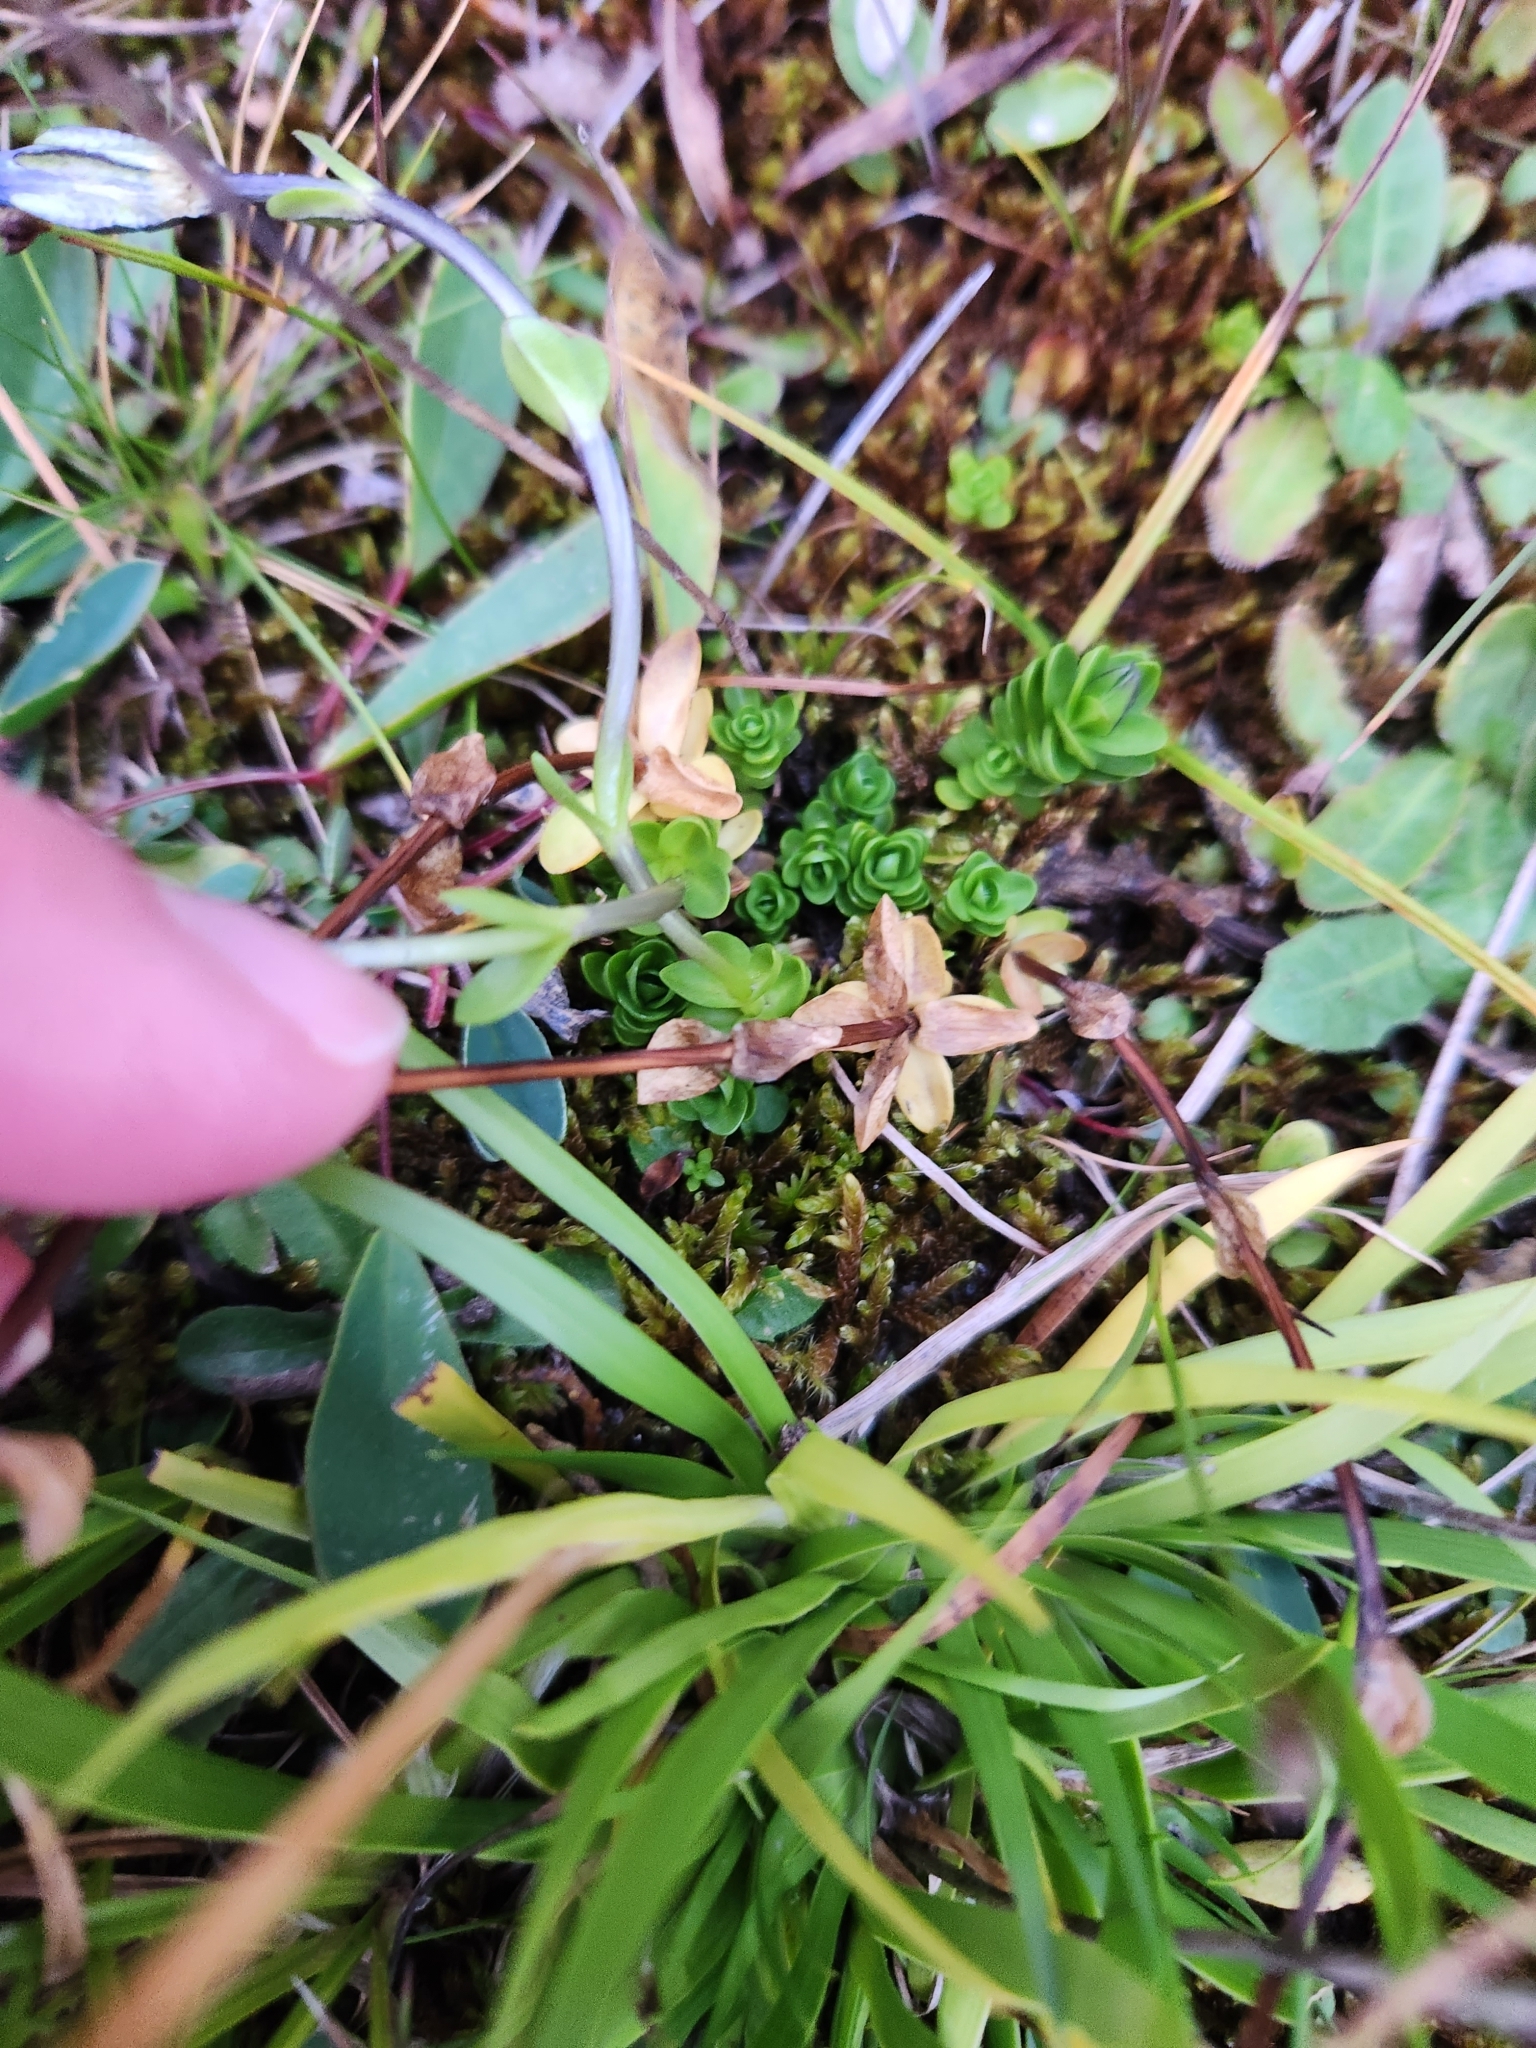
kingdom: Plantae
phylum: Tracheophyta
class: Magnoliopsida
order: Gentianales
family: Gentianaceae
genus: Gentiana
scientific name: Gentiana bavarica
